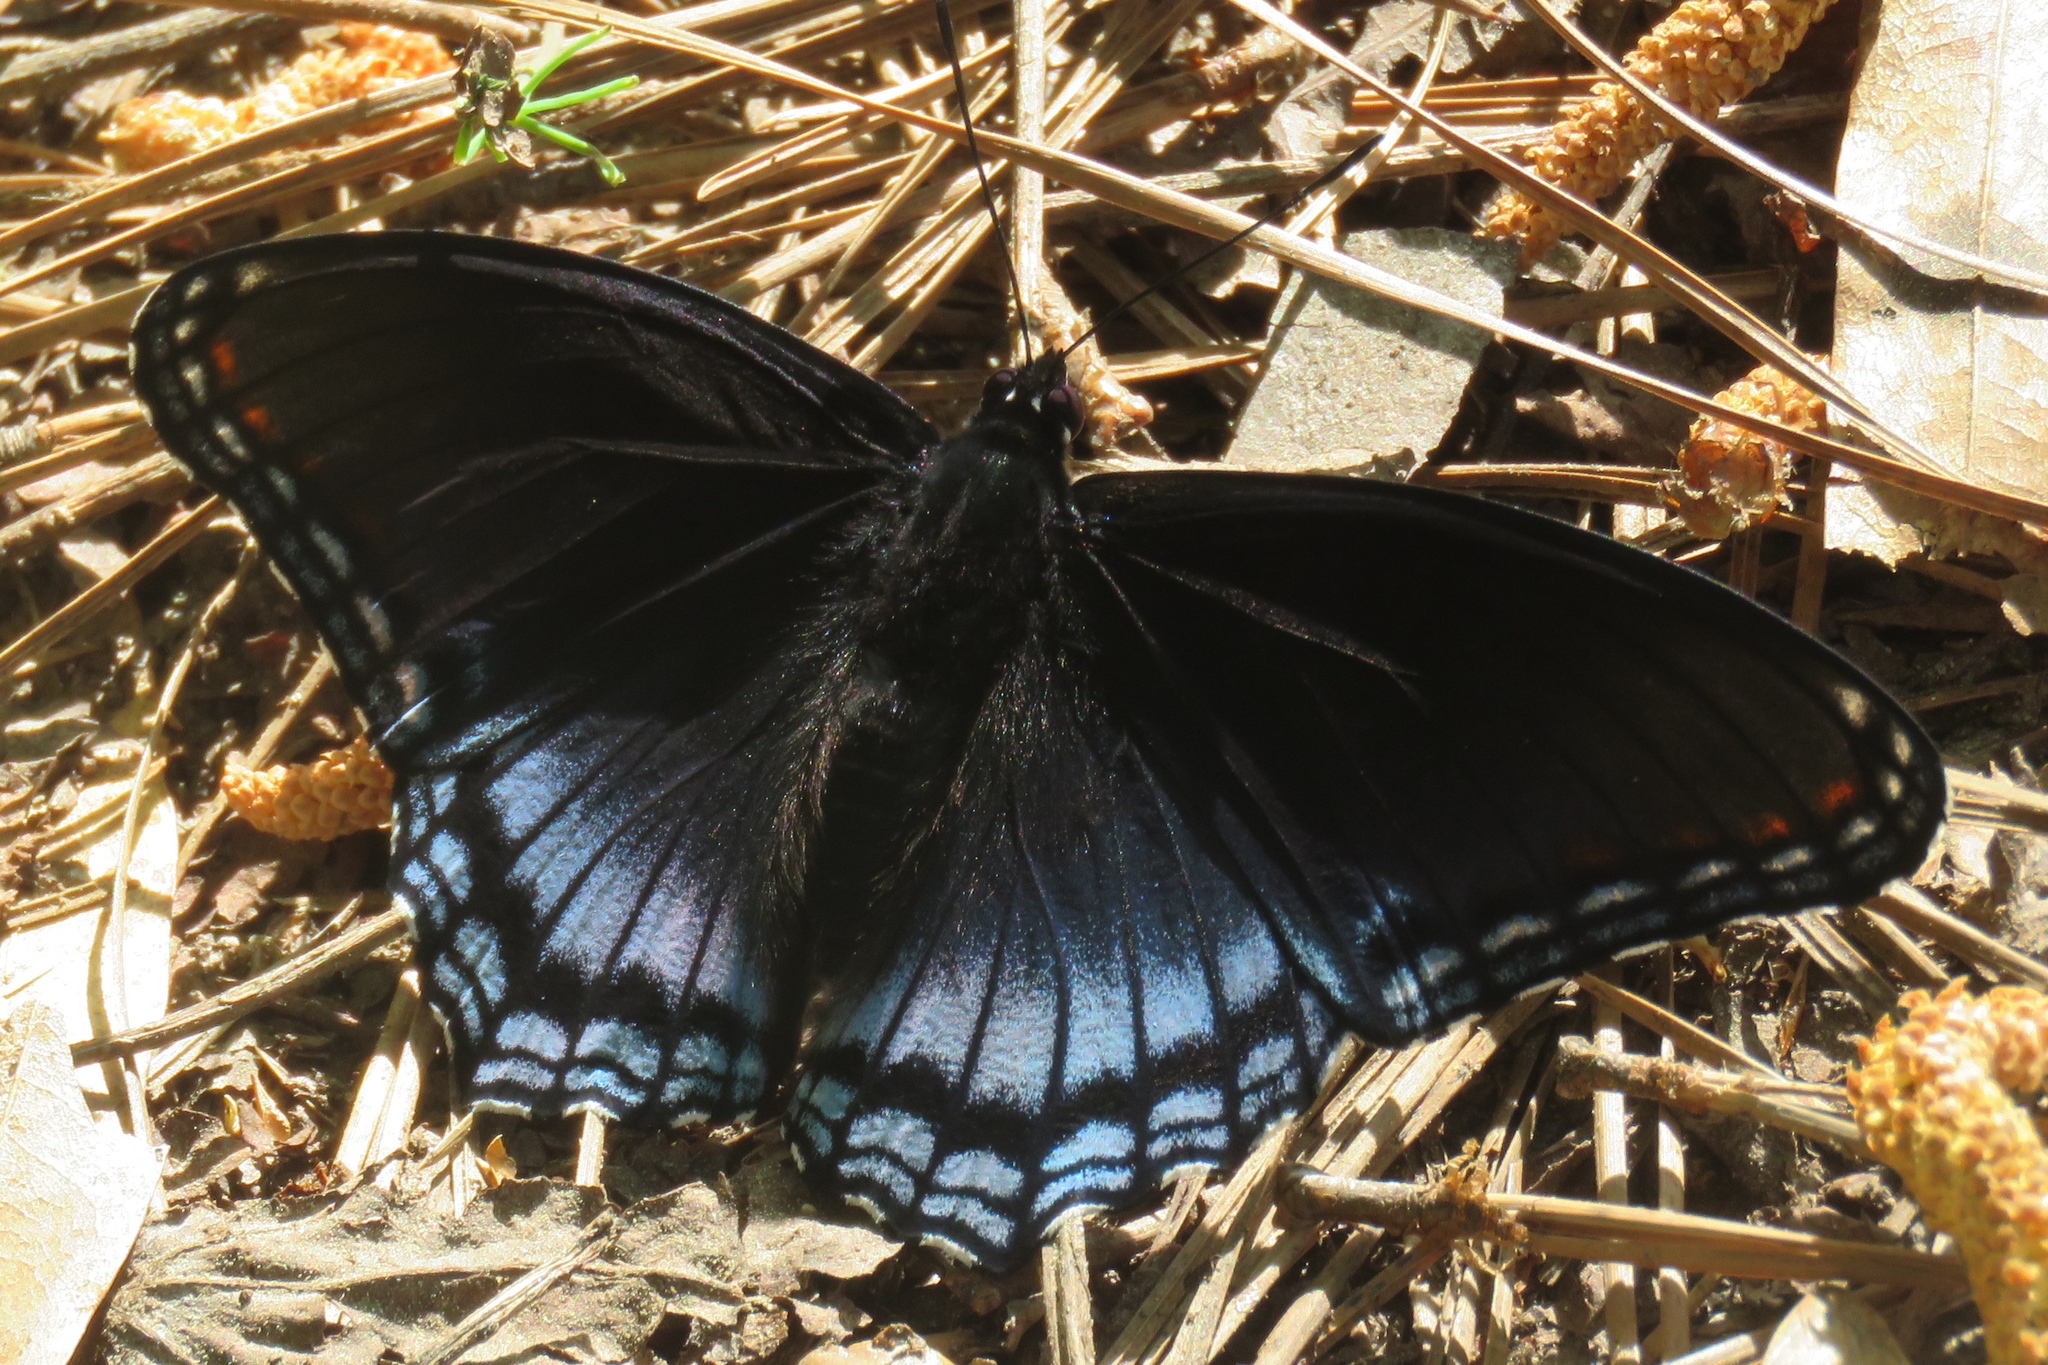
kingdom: Animalia
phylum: Arthropoda
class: Insecta
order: Lepidoptera
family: Nymphalidae
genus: Limenitis
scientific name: Limenitis astyanax
